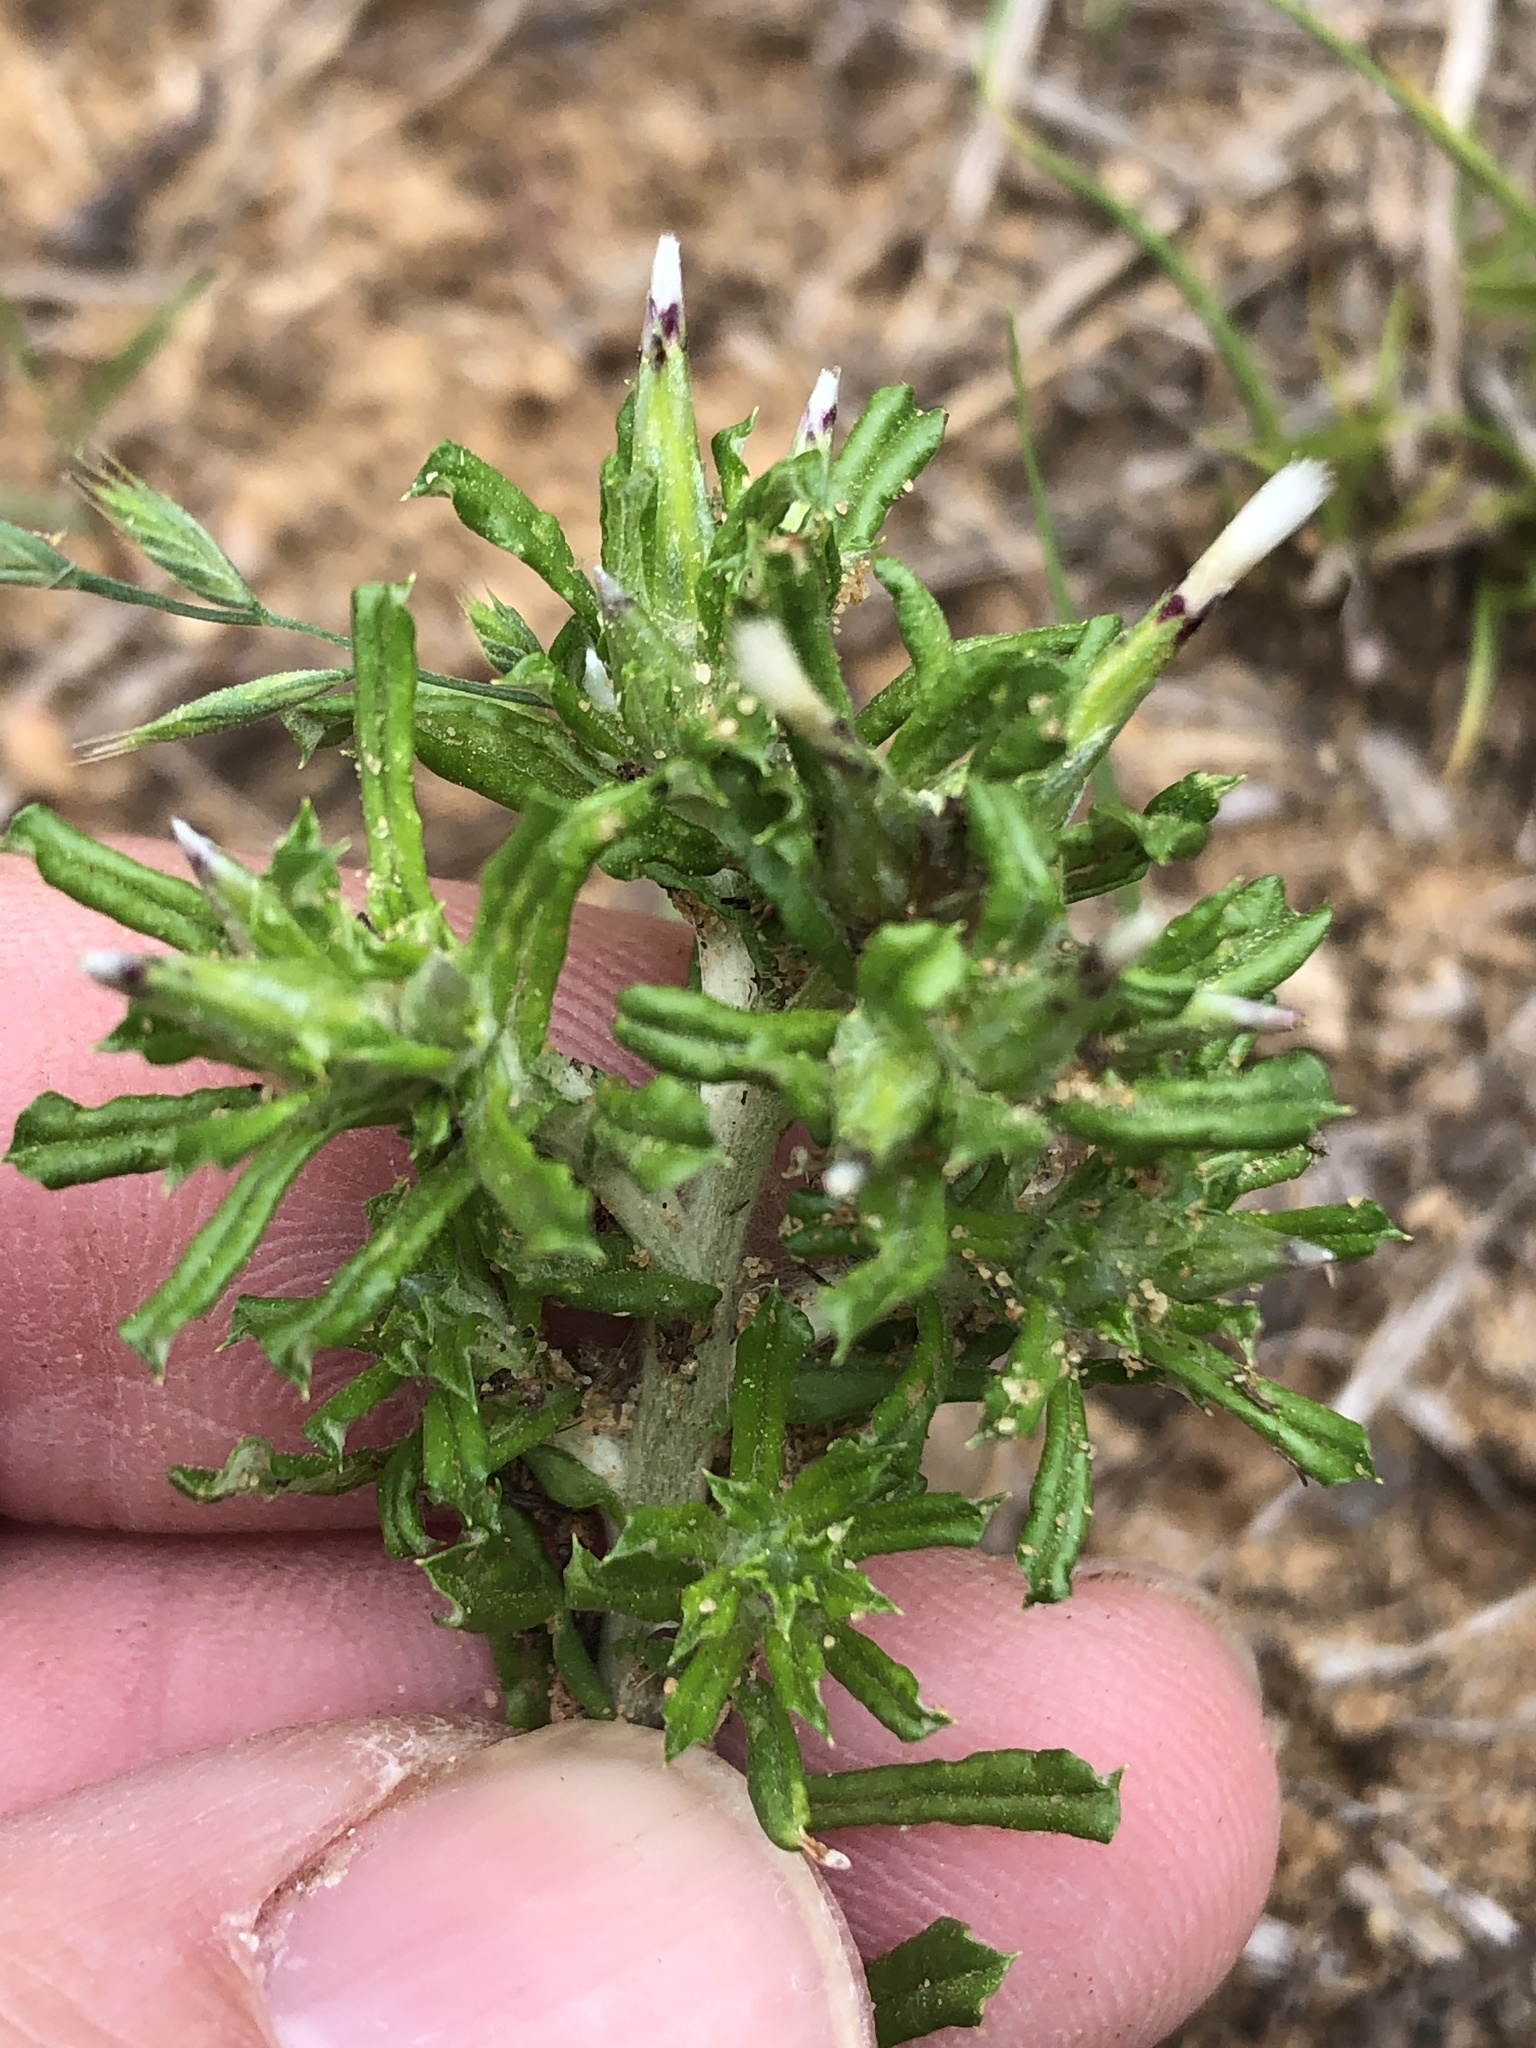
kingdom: Plantae
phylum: Tracheophyta
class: Magnoliopsida
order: Asterales
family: Asteraceae
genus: Facelis
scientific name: Facelis retusa
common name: Annual trampweed
